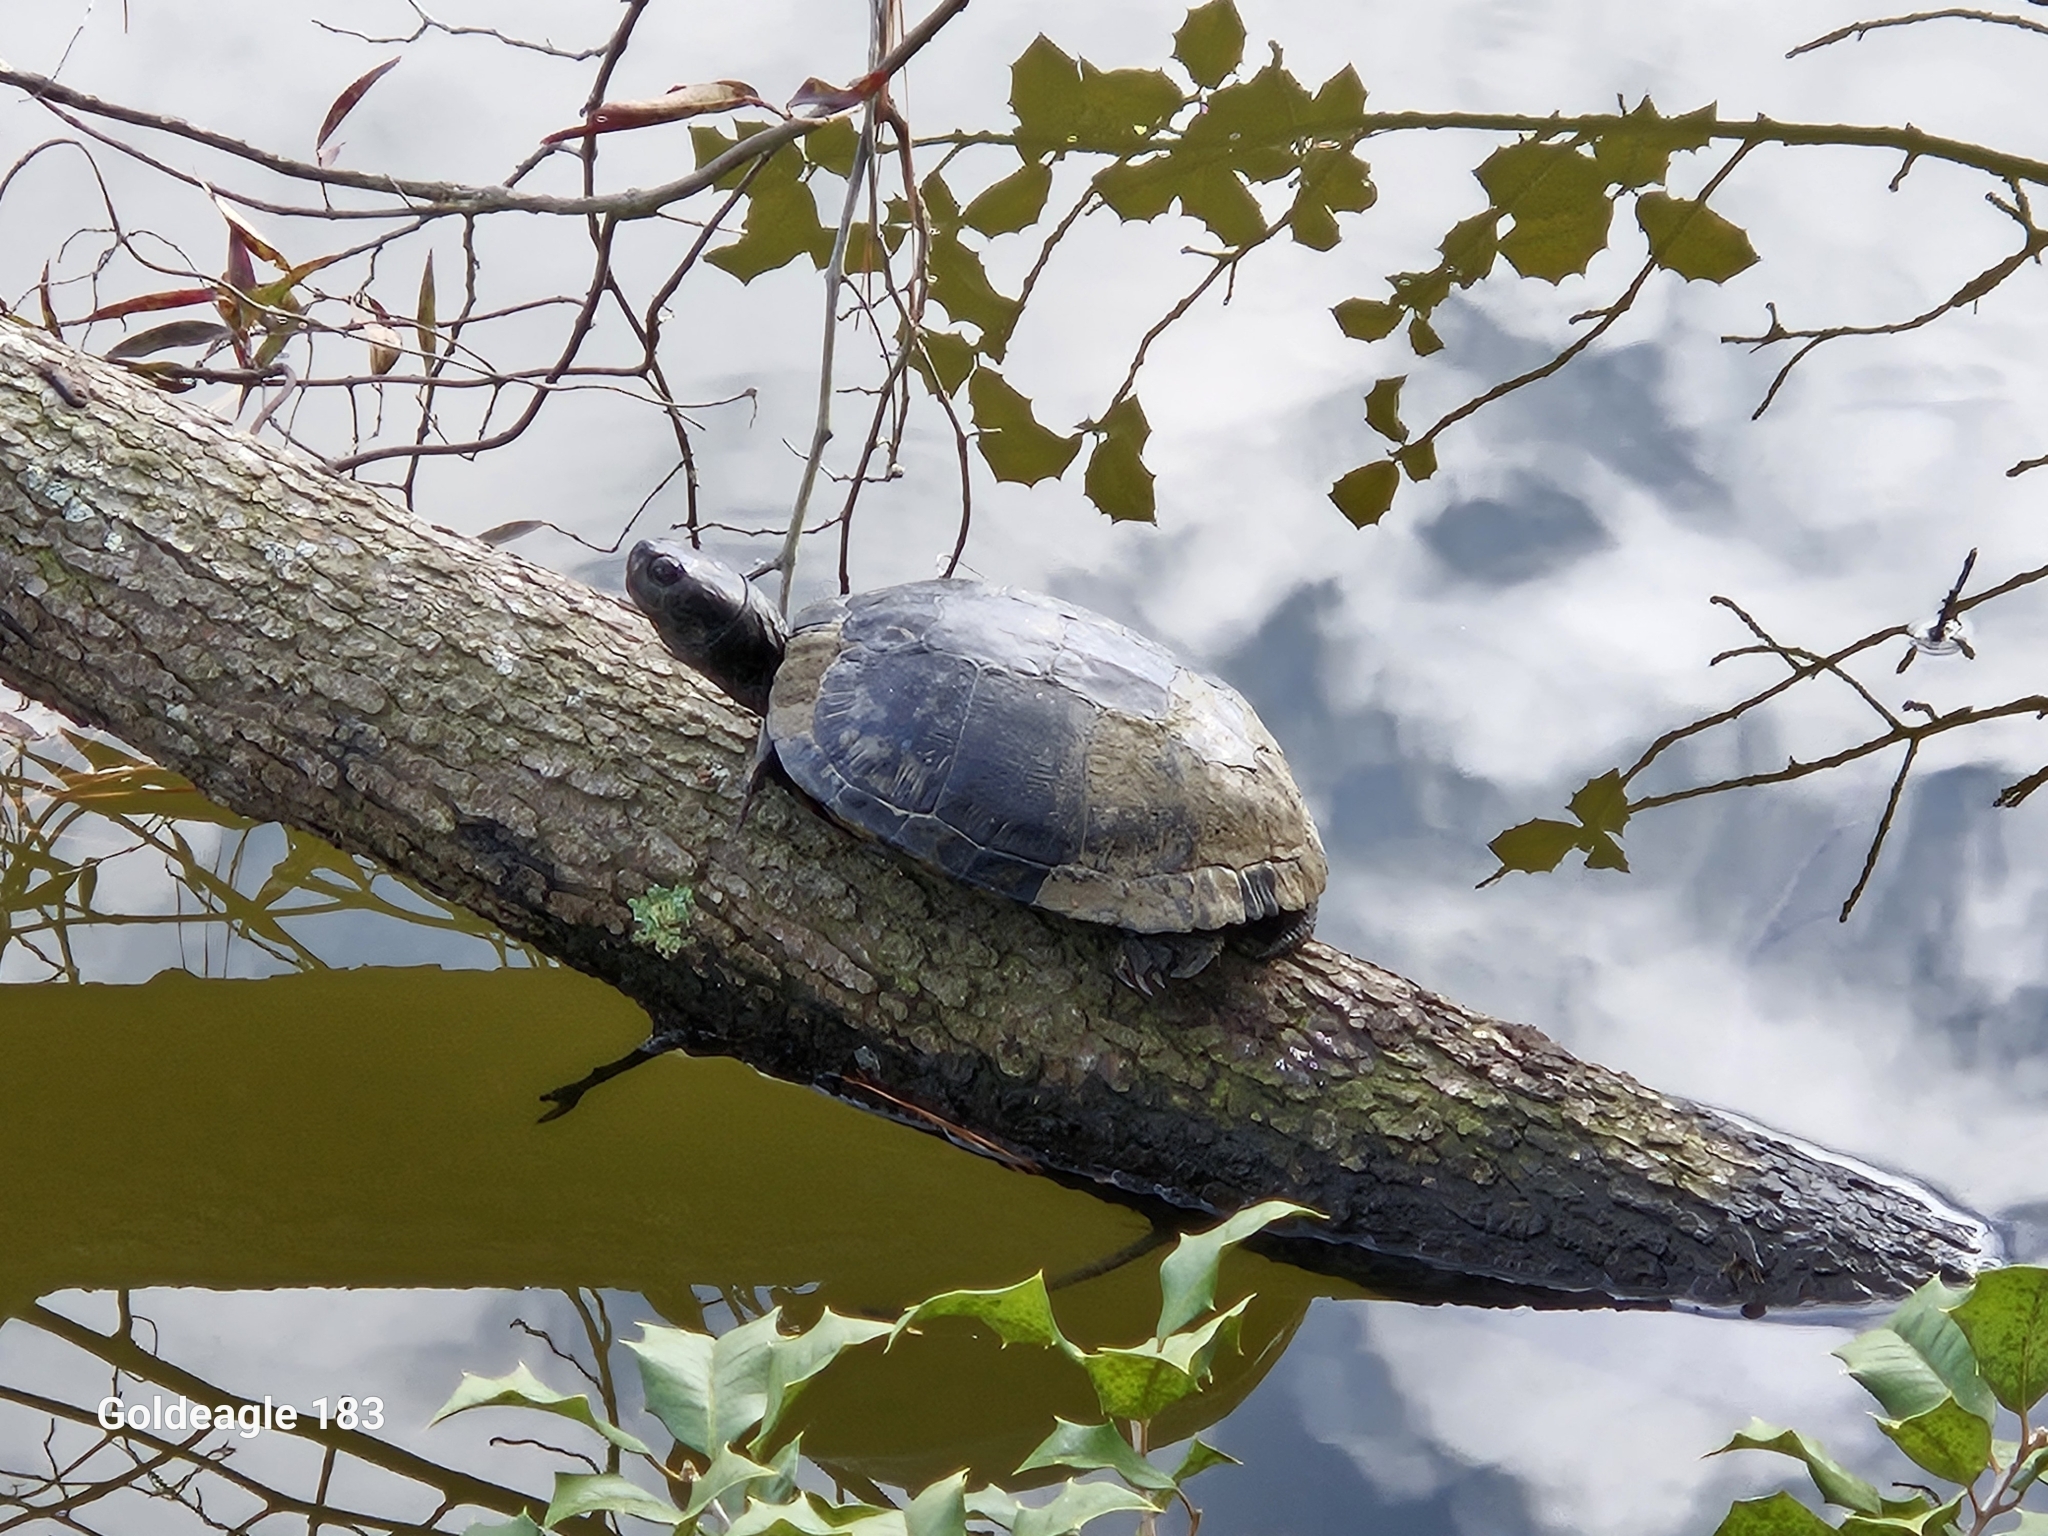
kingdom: Animalia
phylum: Chordata
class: Testudines
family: Emydidae
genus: Trachemys
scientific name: Trachemys scripta
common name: Slider
